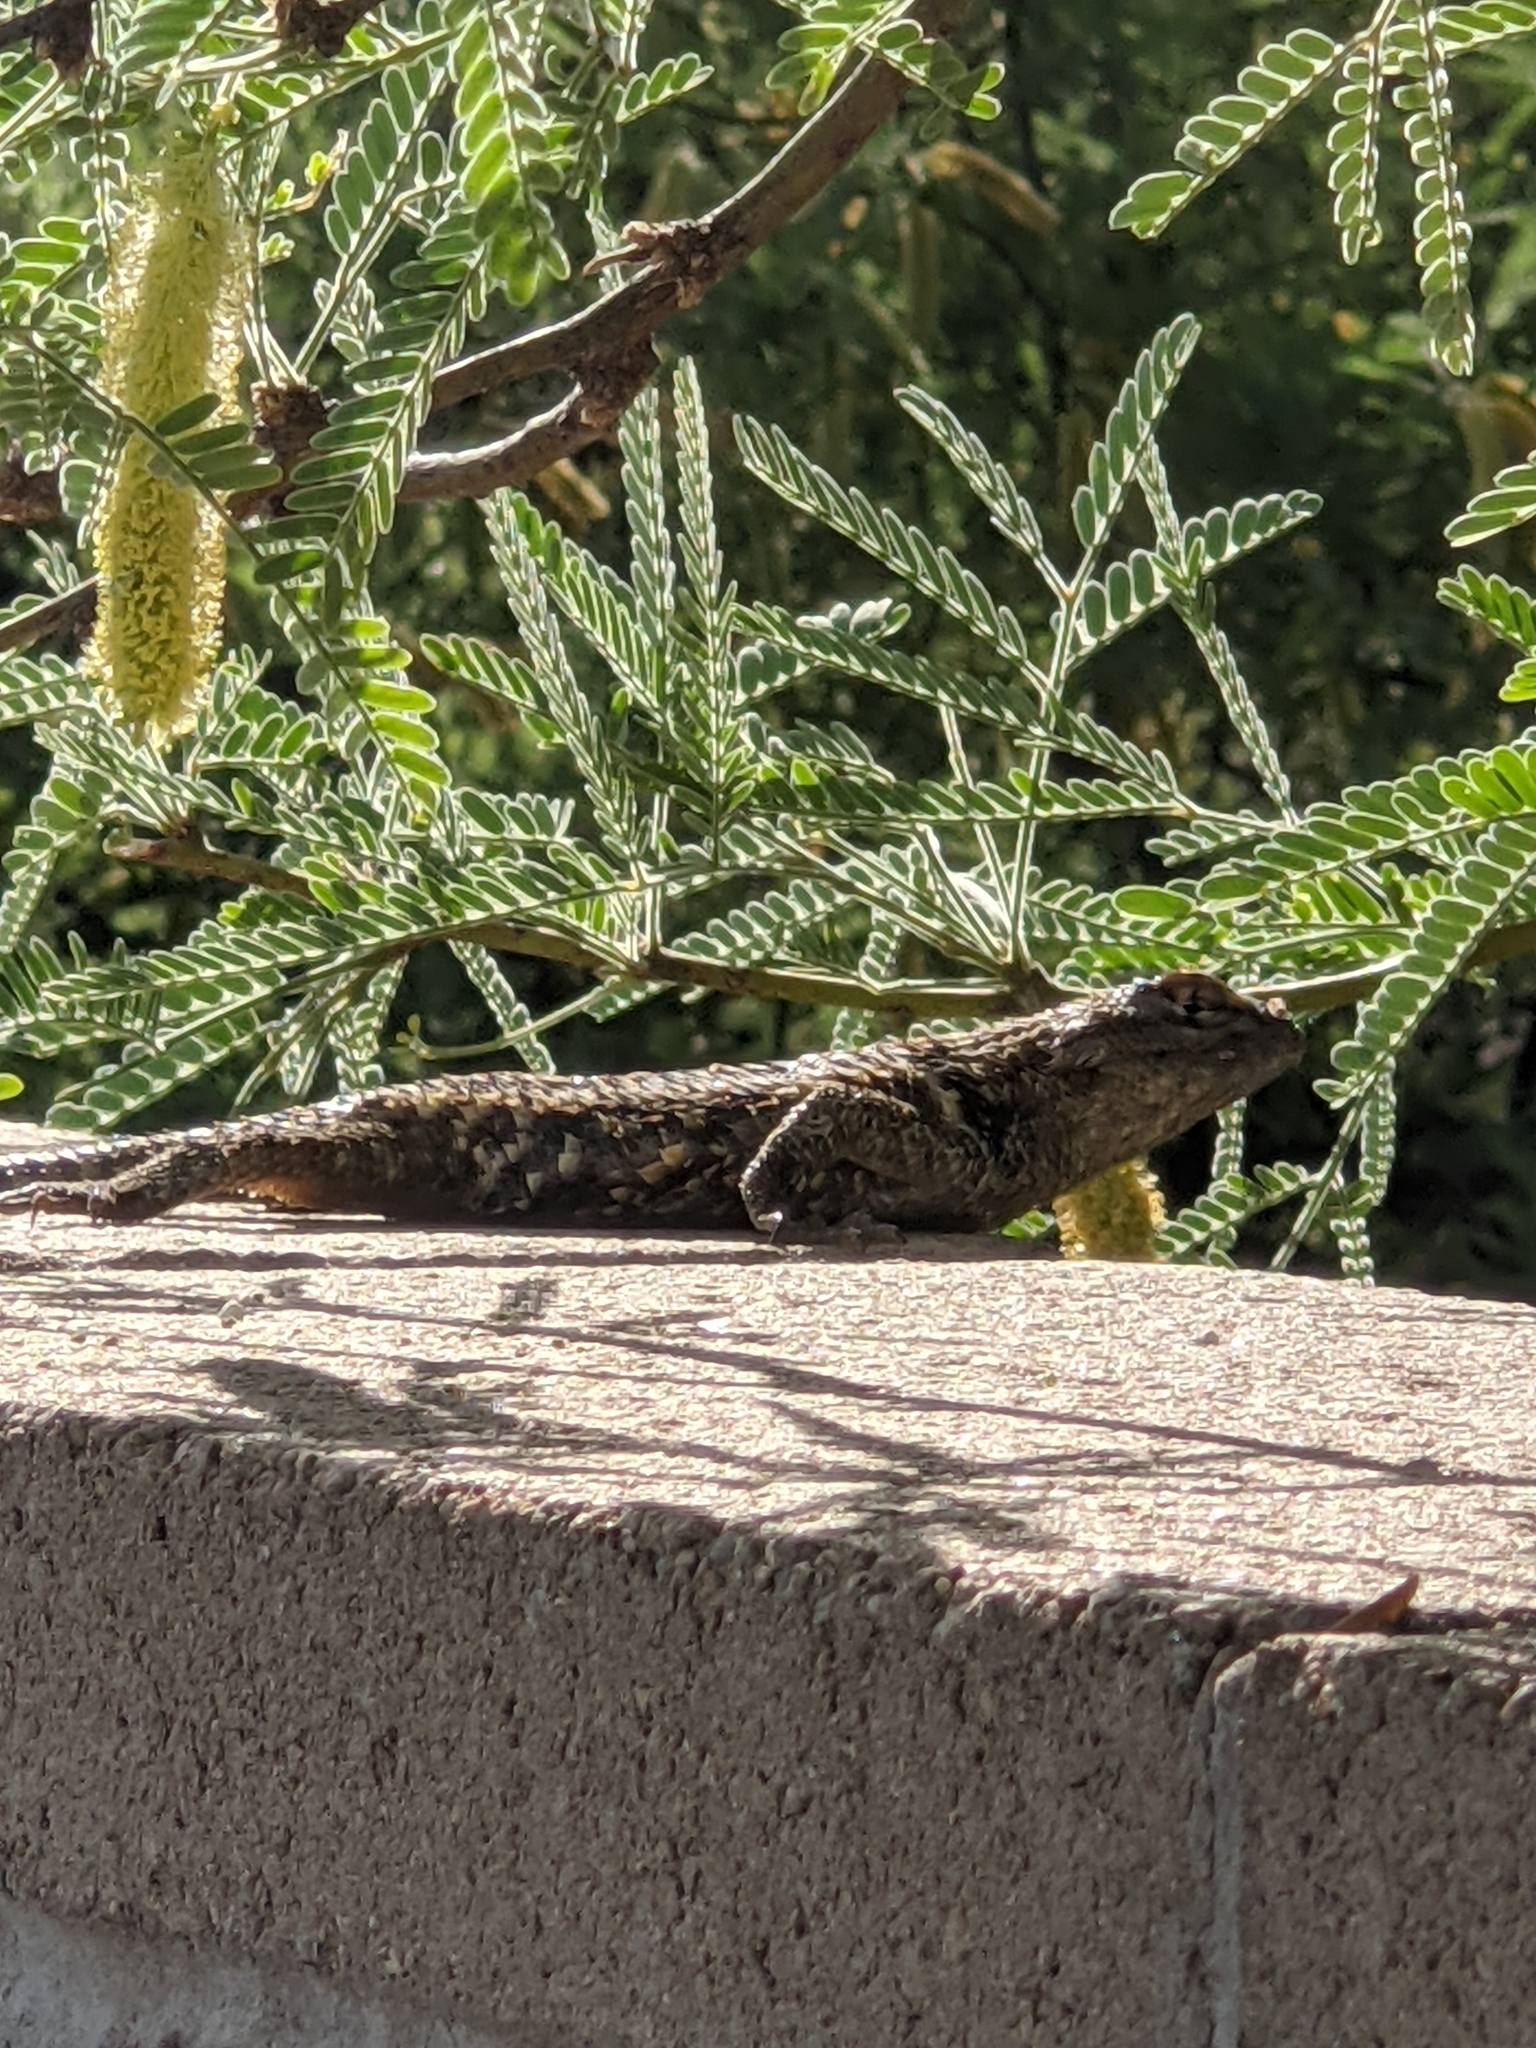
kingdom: Animalia
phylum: Chordata
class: Squamata
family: Phrynosomatidae
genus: Sceloporus
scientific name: Sceloporus magister
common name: Desert spiny lizard
